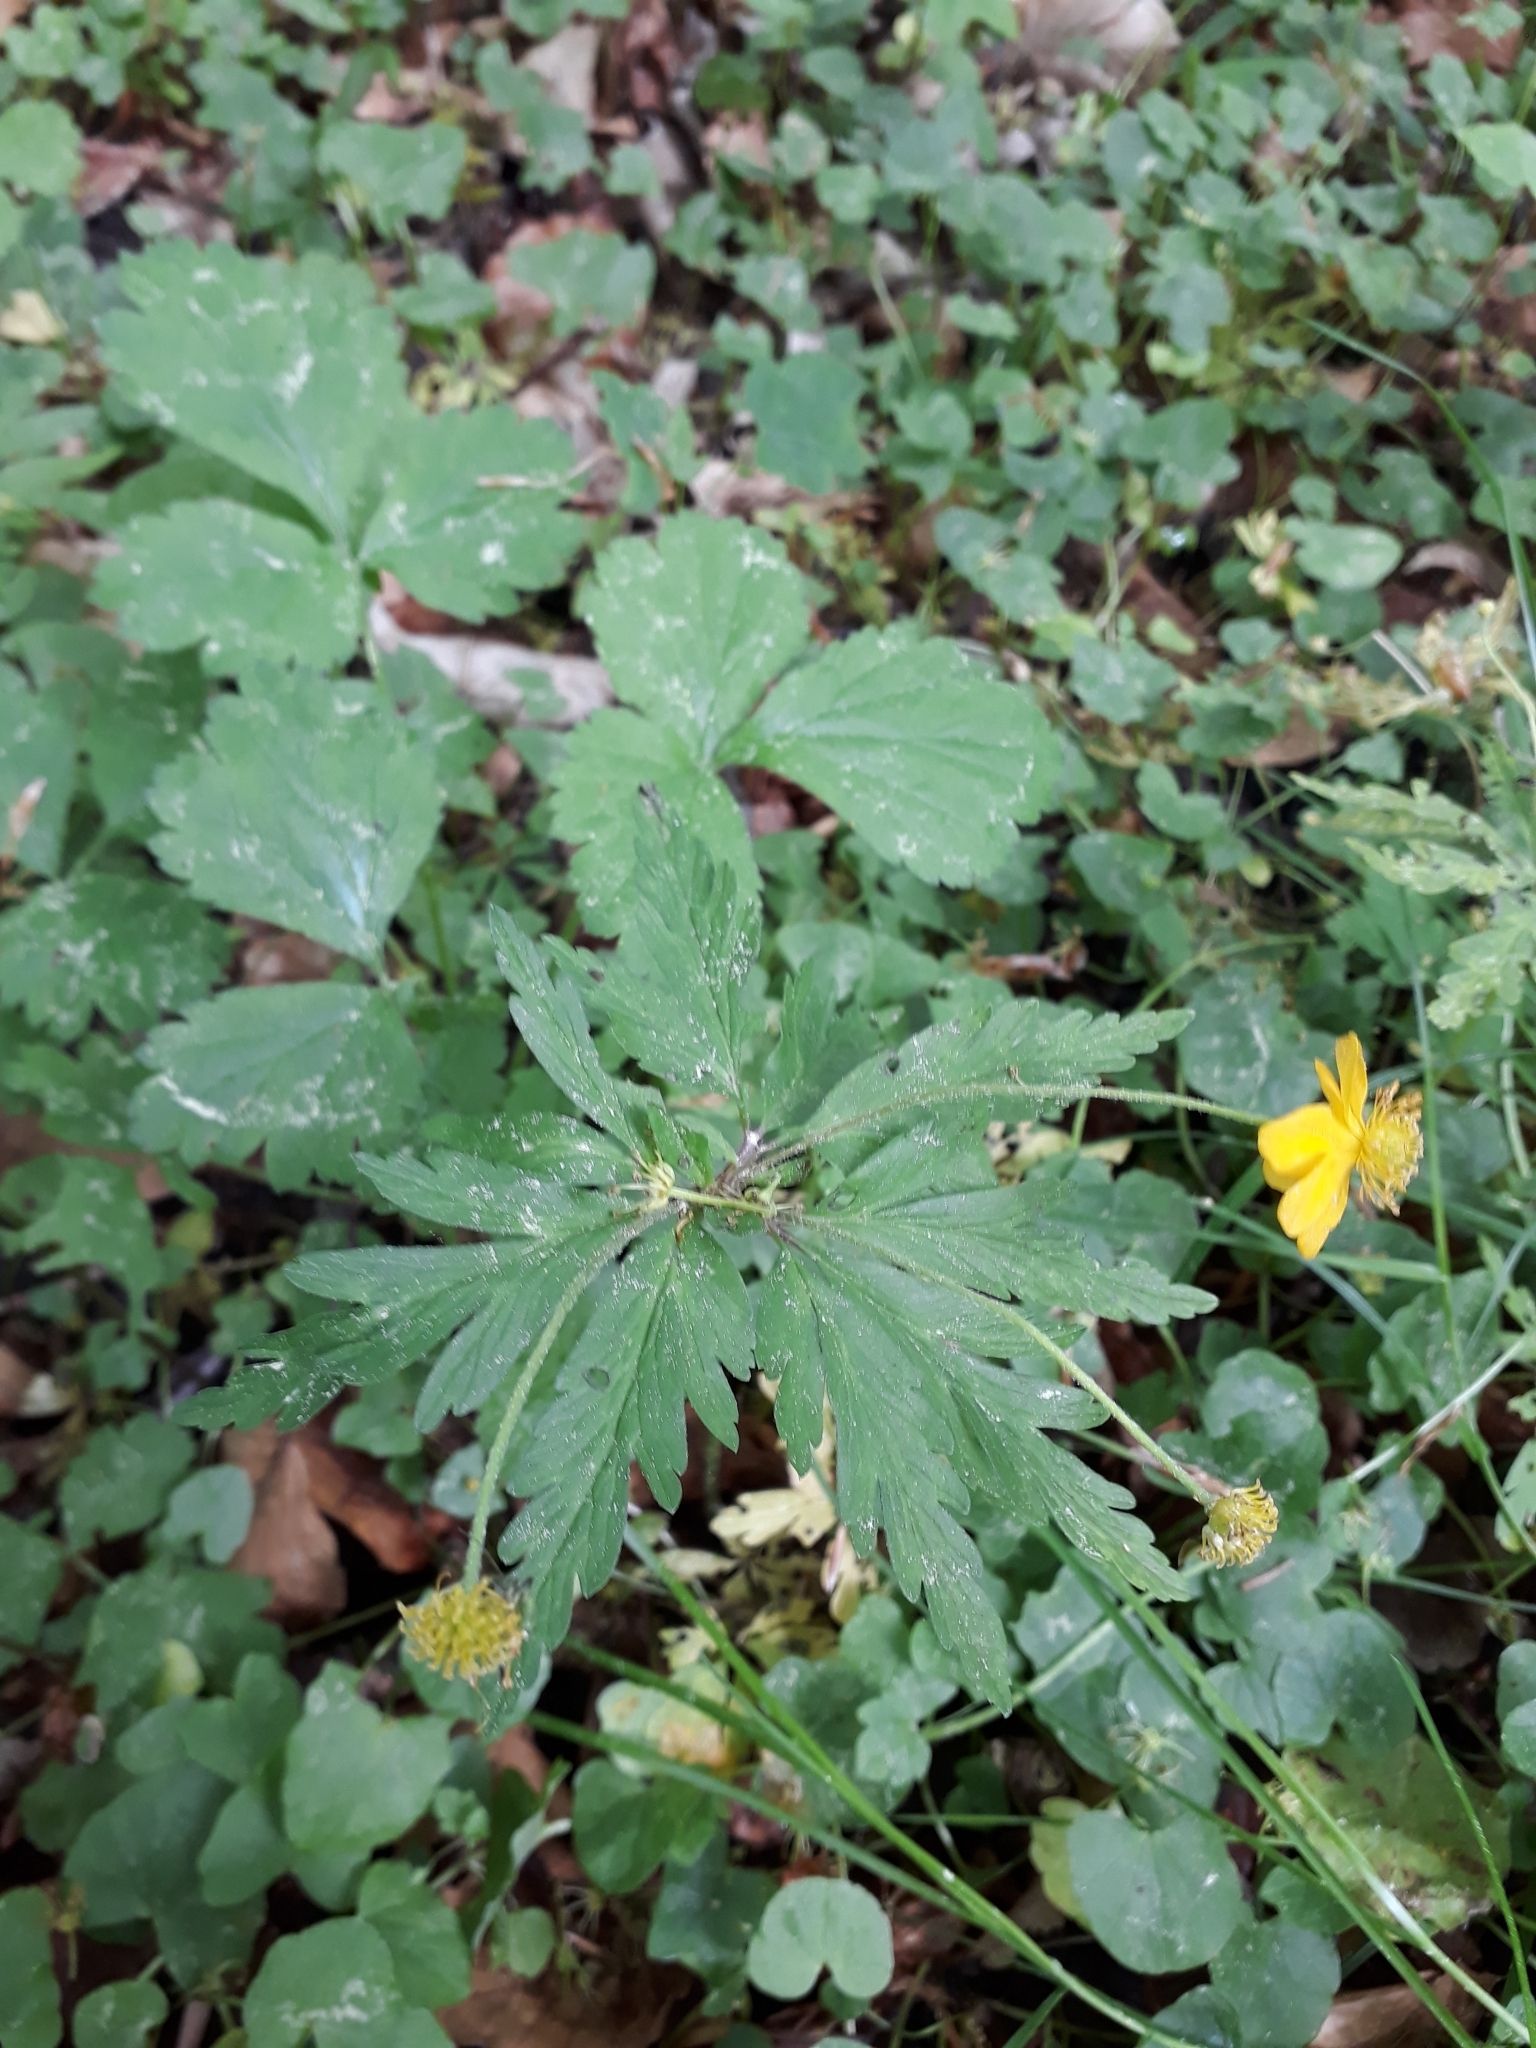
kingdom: Plantae
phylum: Tracheophyta
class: Magnoliopsida
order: Ranunculales
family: Ranunculaceae
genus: Anemone
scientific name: Anemone ranunculoides
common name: Yellow anemone
